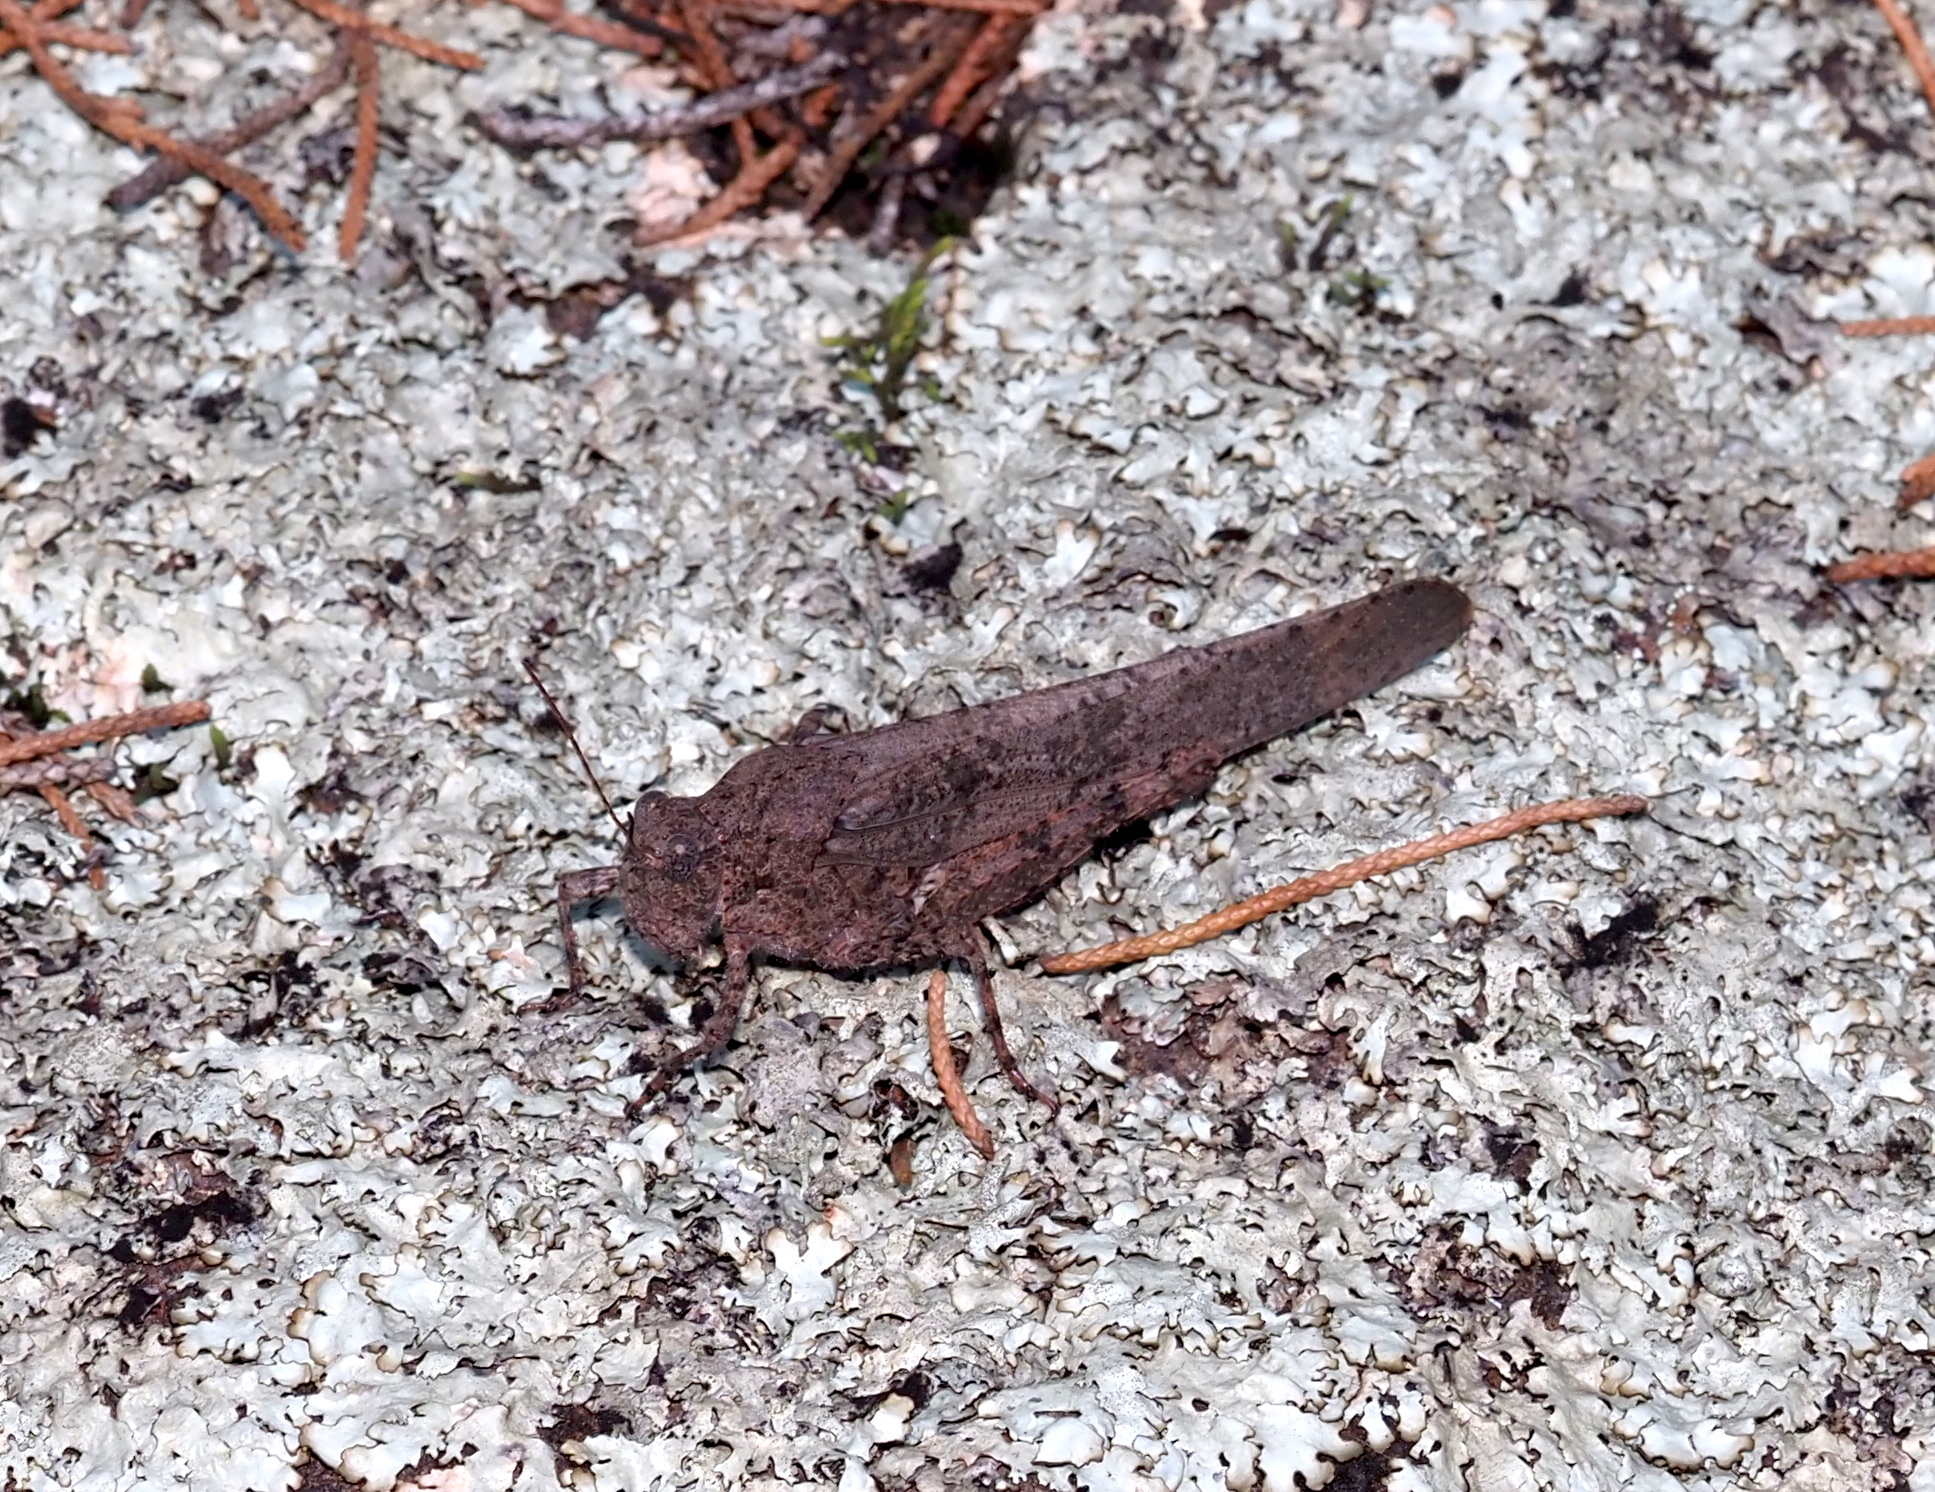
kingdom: Animalia
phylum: Arthropoda
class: Insecta
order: Orthoptera
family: Acrididae
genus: Dissosteira
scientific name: Dissosteira carolina
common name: Carolina grasshopper
